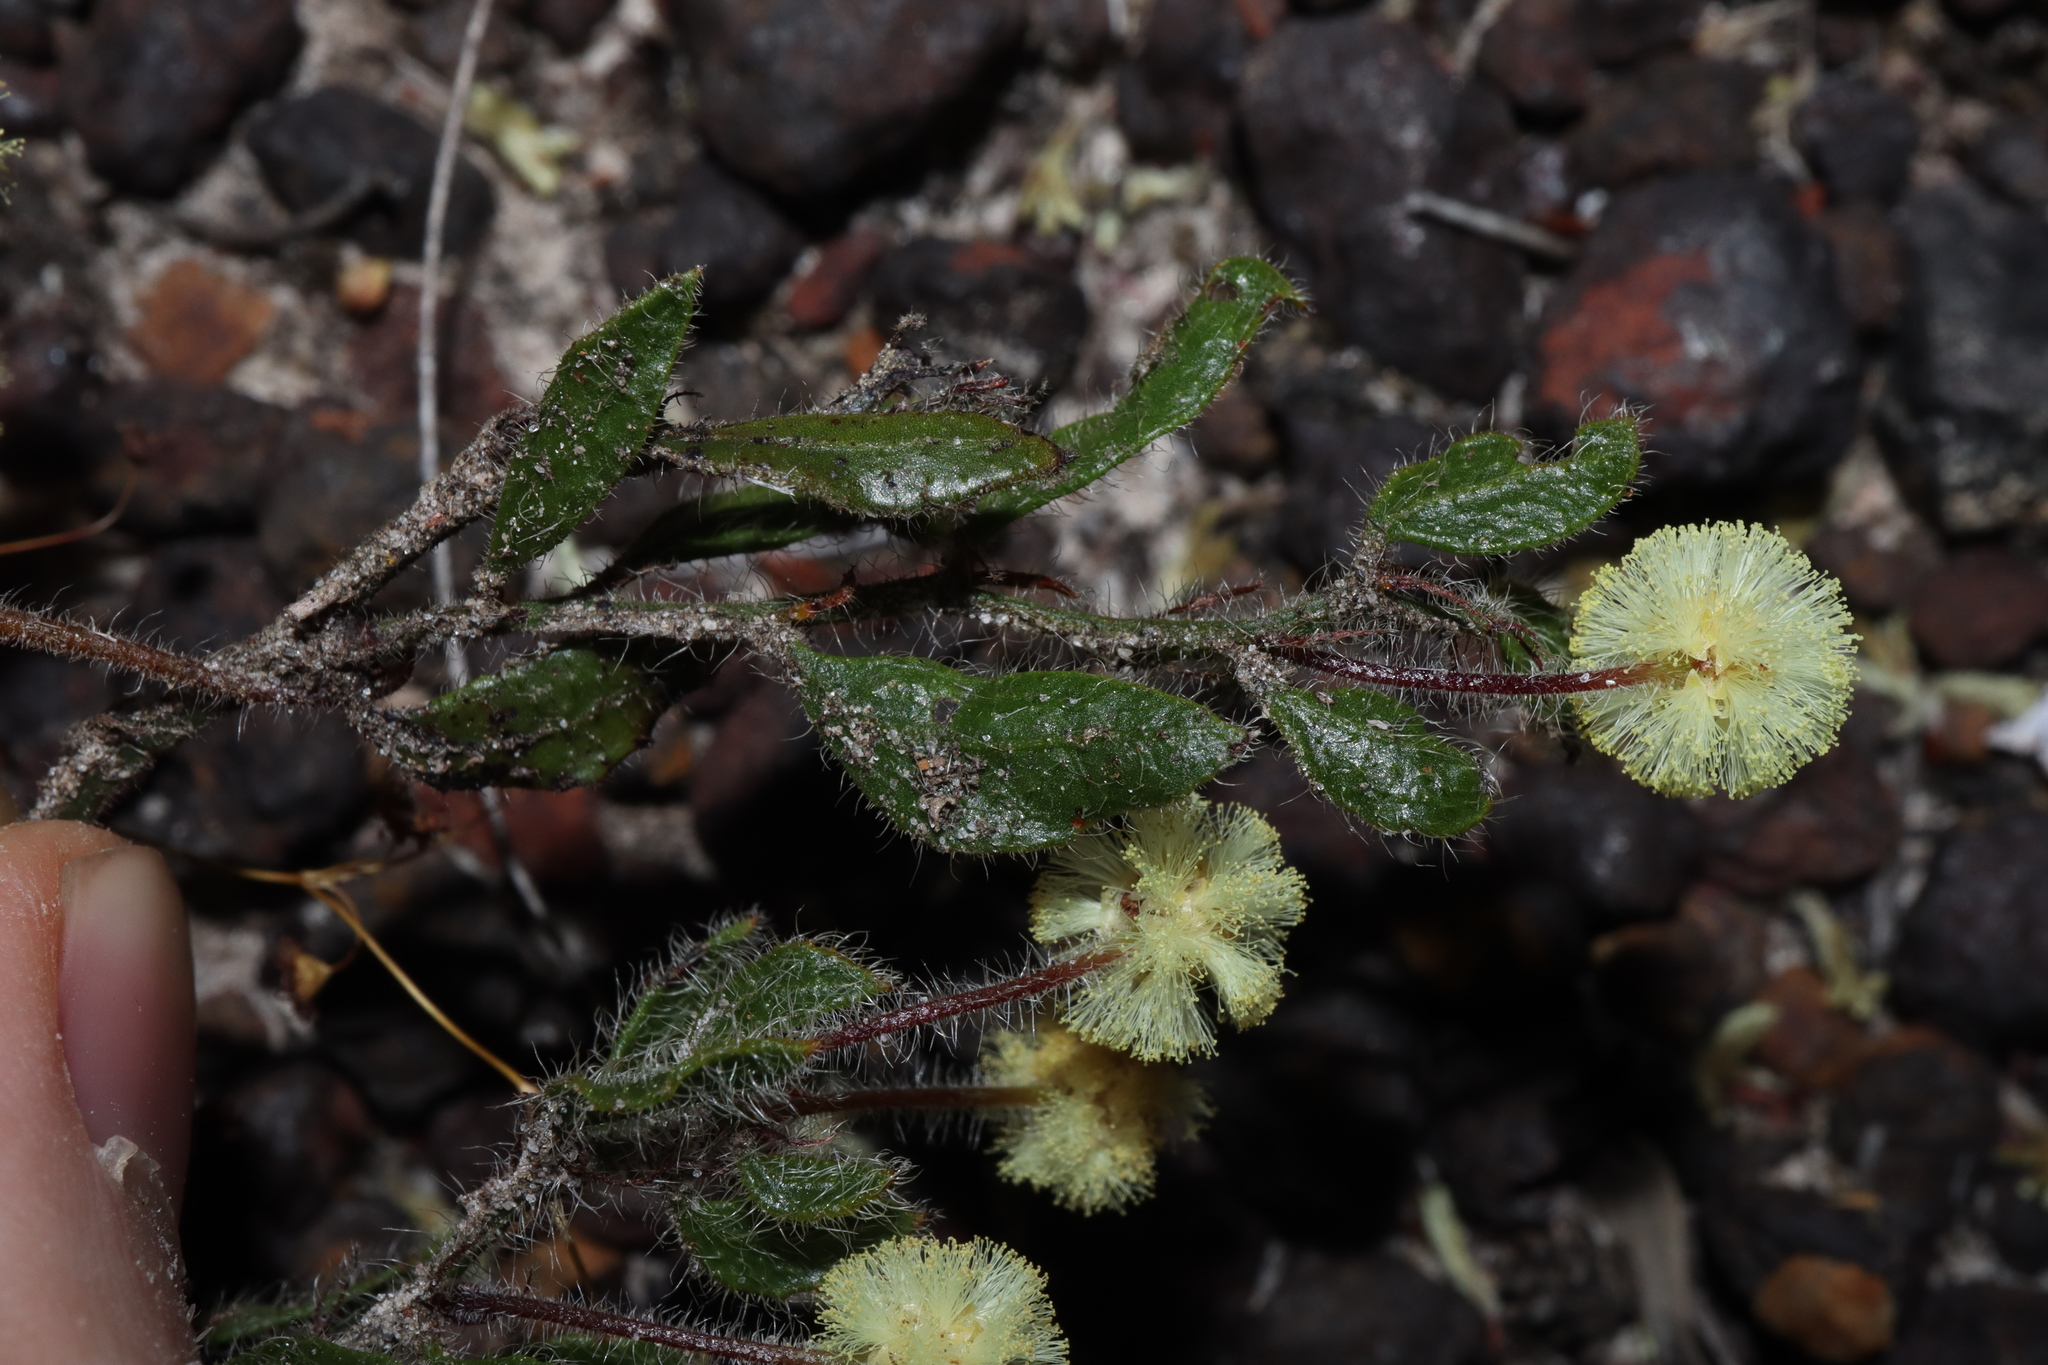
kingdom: Plantae
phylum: Tracheophyta
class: Magnoliopsida
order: Fabales
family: Fabaceae
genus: Acacia
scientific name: Acacia crispula
